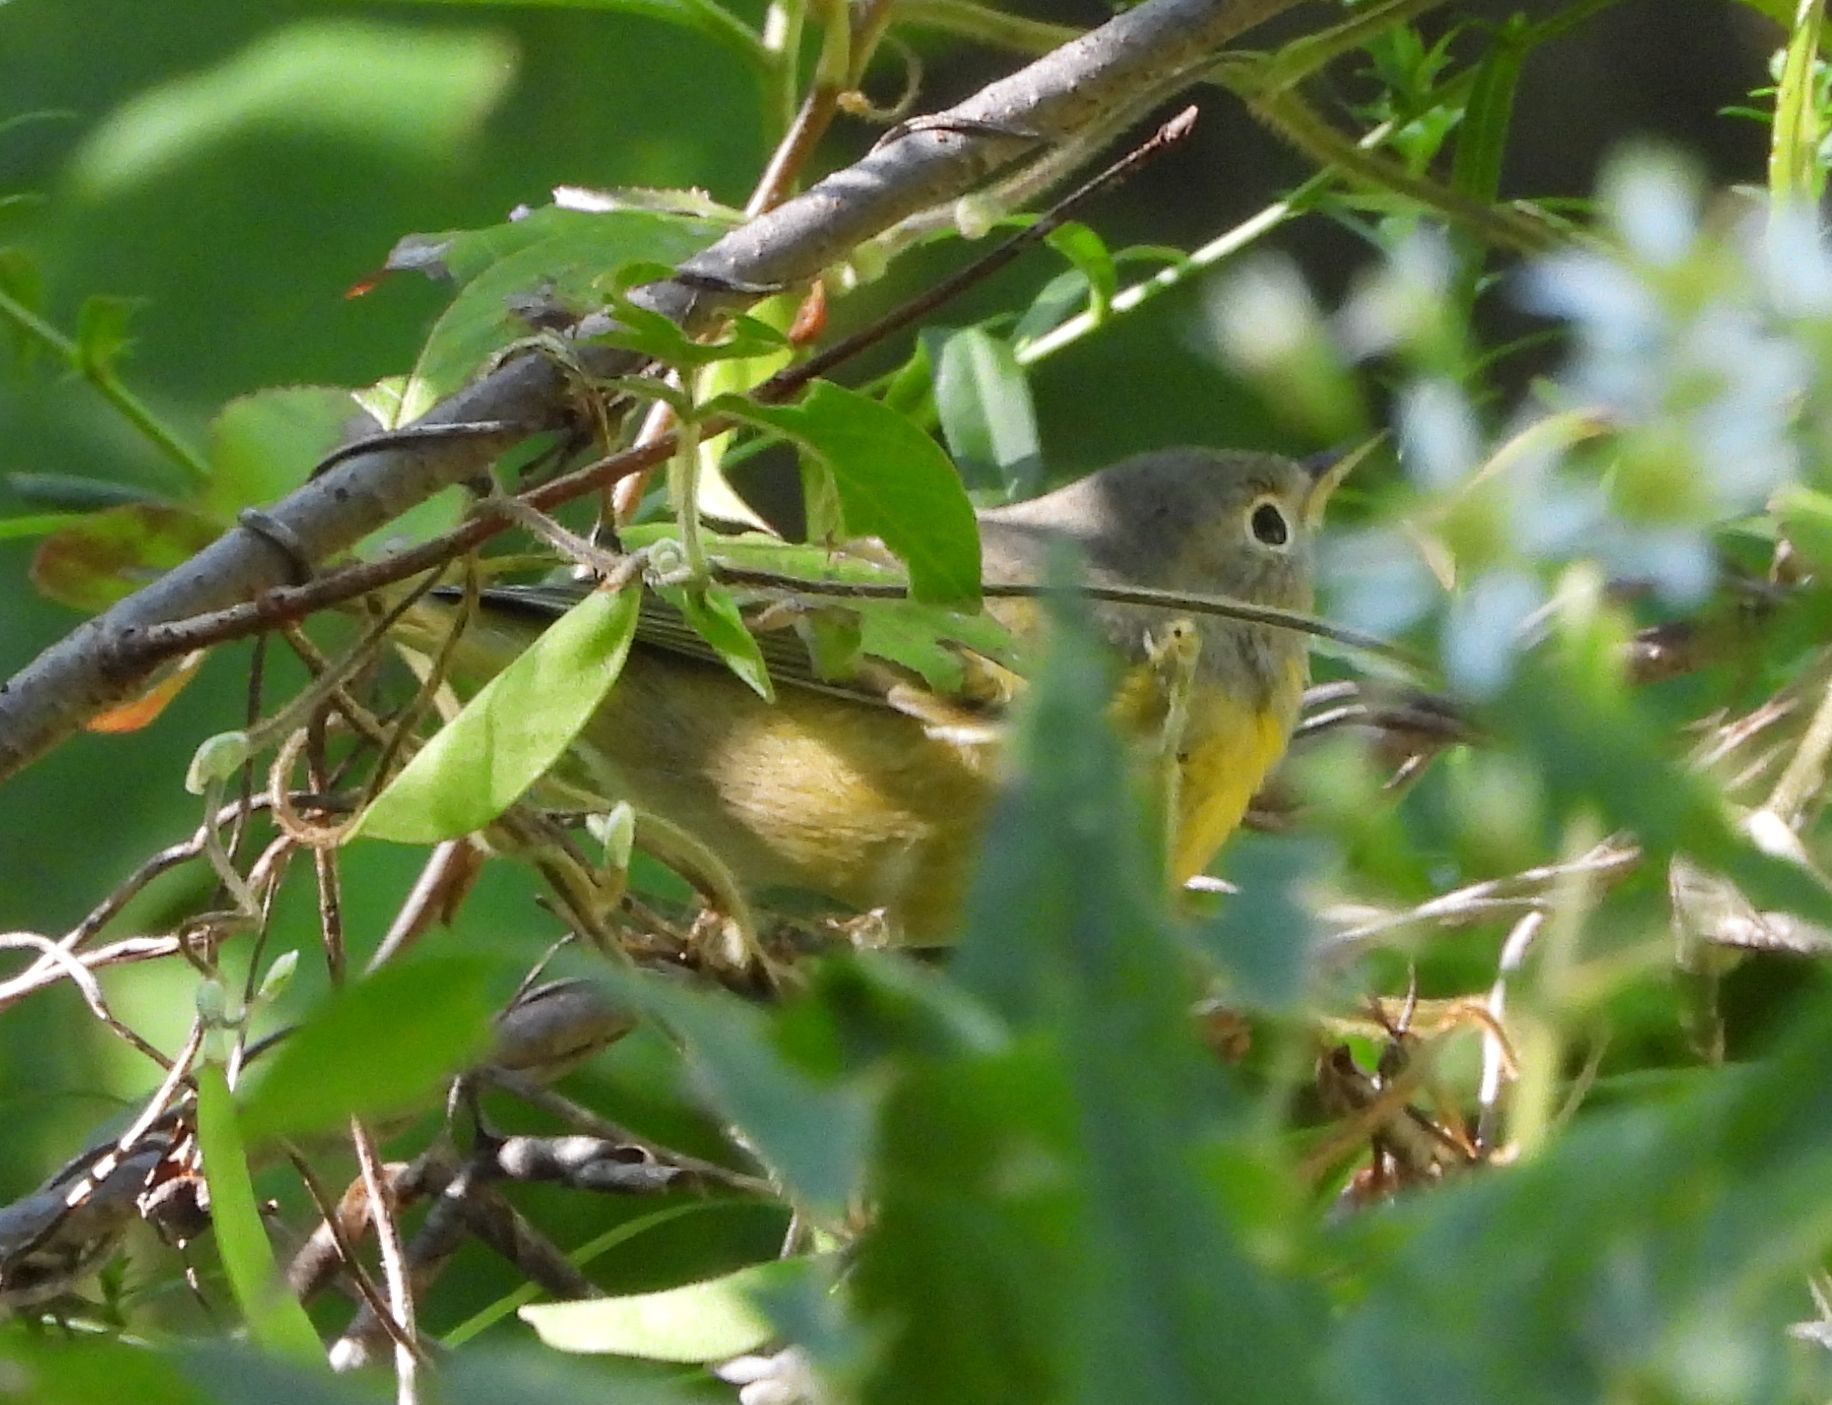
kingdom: Animalia
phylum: Chordata
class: Aves
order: Passeriformes
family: Parulidae
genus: Leiothlypis
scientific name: Leiothlypis ruficapilla
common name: Nashville warbler
